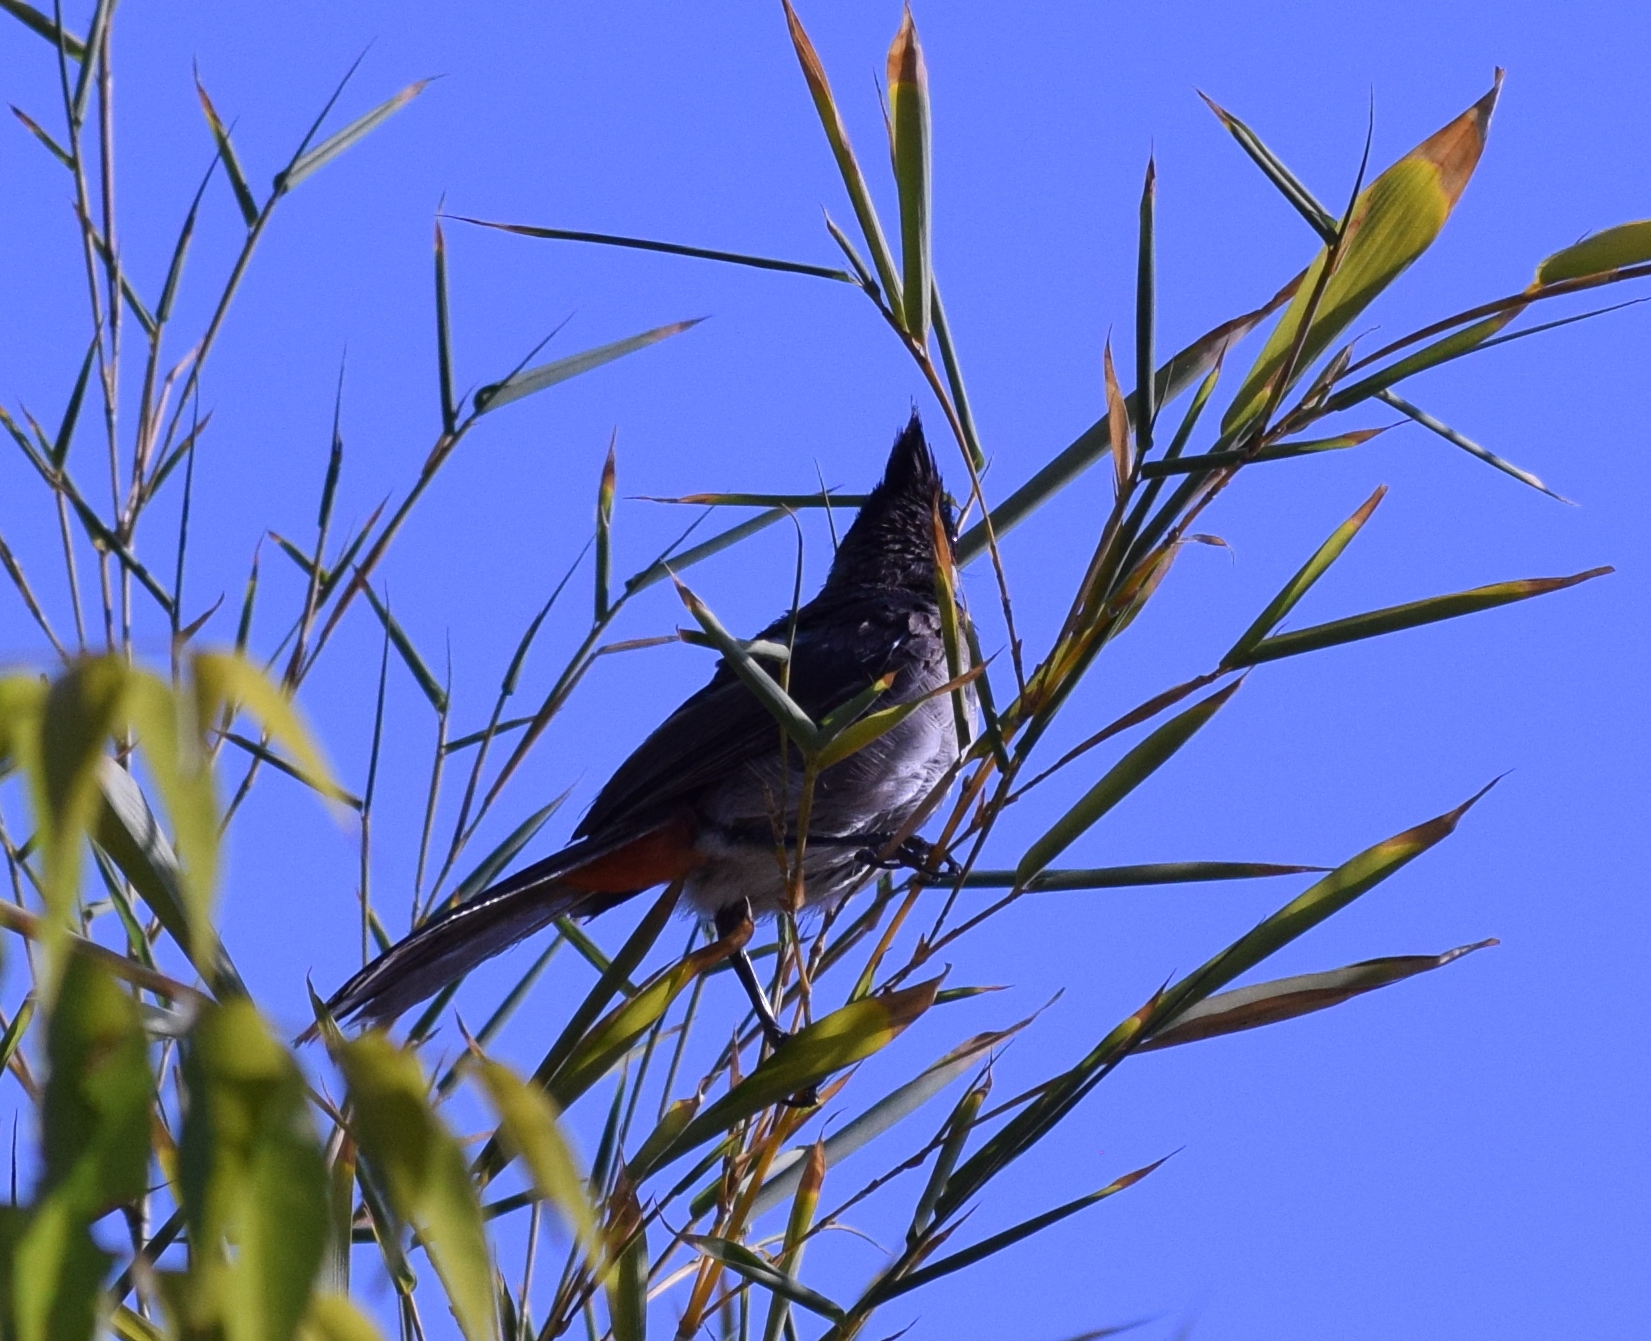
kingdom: Animalia
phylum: Chordata
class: Aves
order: Passeriformes
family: Pycnonotidae
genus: Pycnonotus
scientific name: Pycnonotus jocosus
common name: Red-whiskered bulbul
